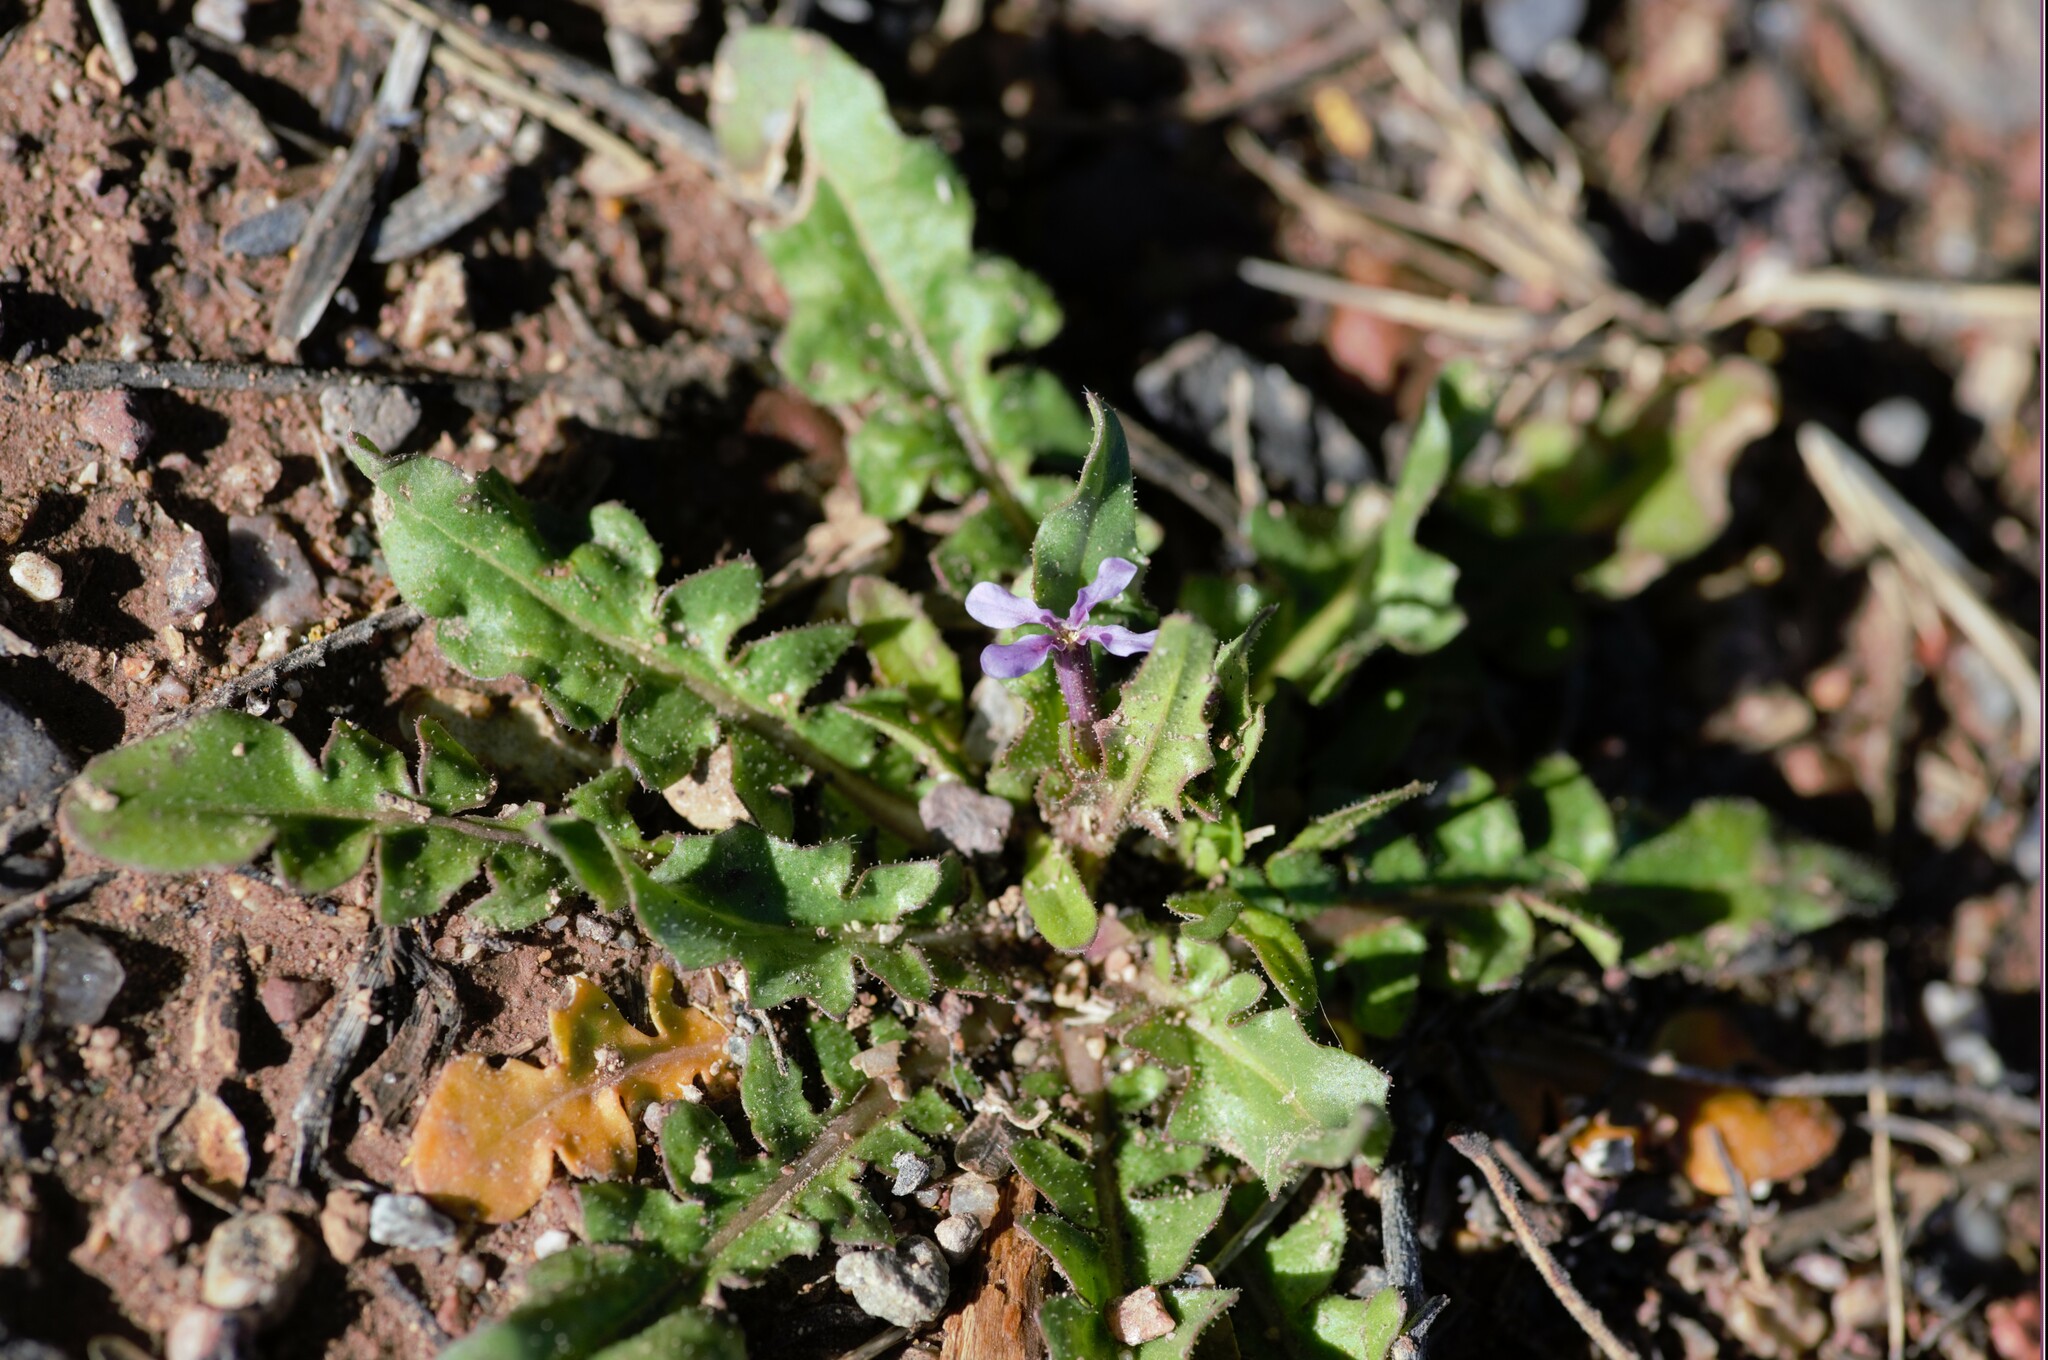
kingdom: Plantae
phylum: Tracheophyta
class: Magnoliopsida
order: Brassicales
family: Brassicaceae
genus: Chorispora
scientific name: Chorispora tenella
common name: Crossflower
